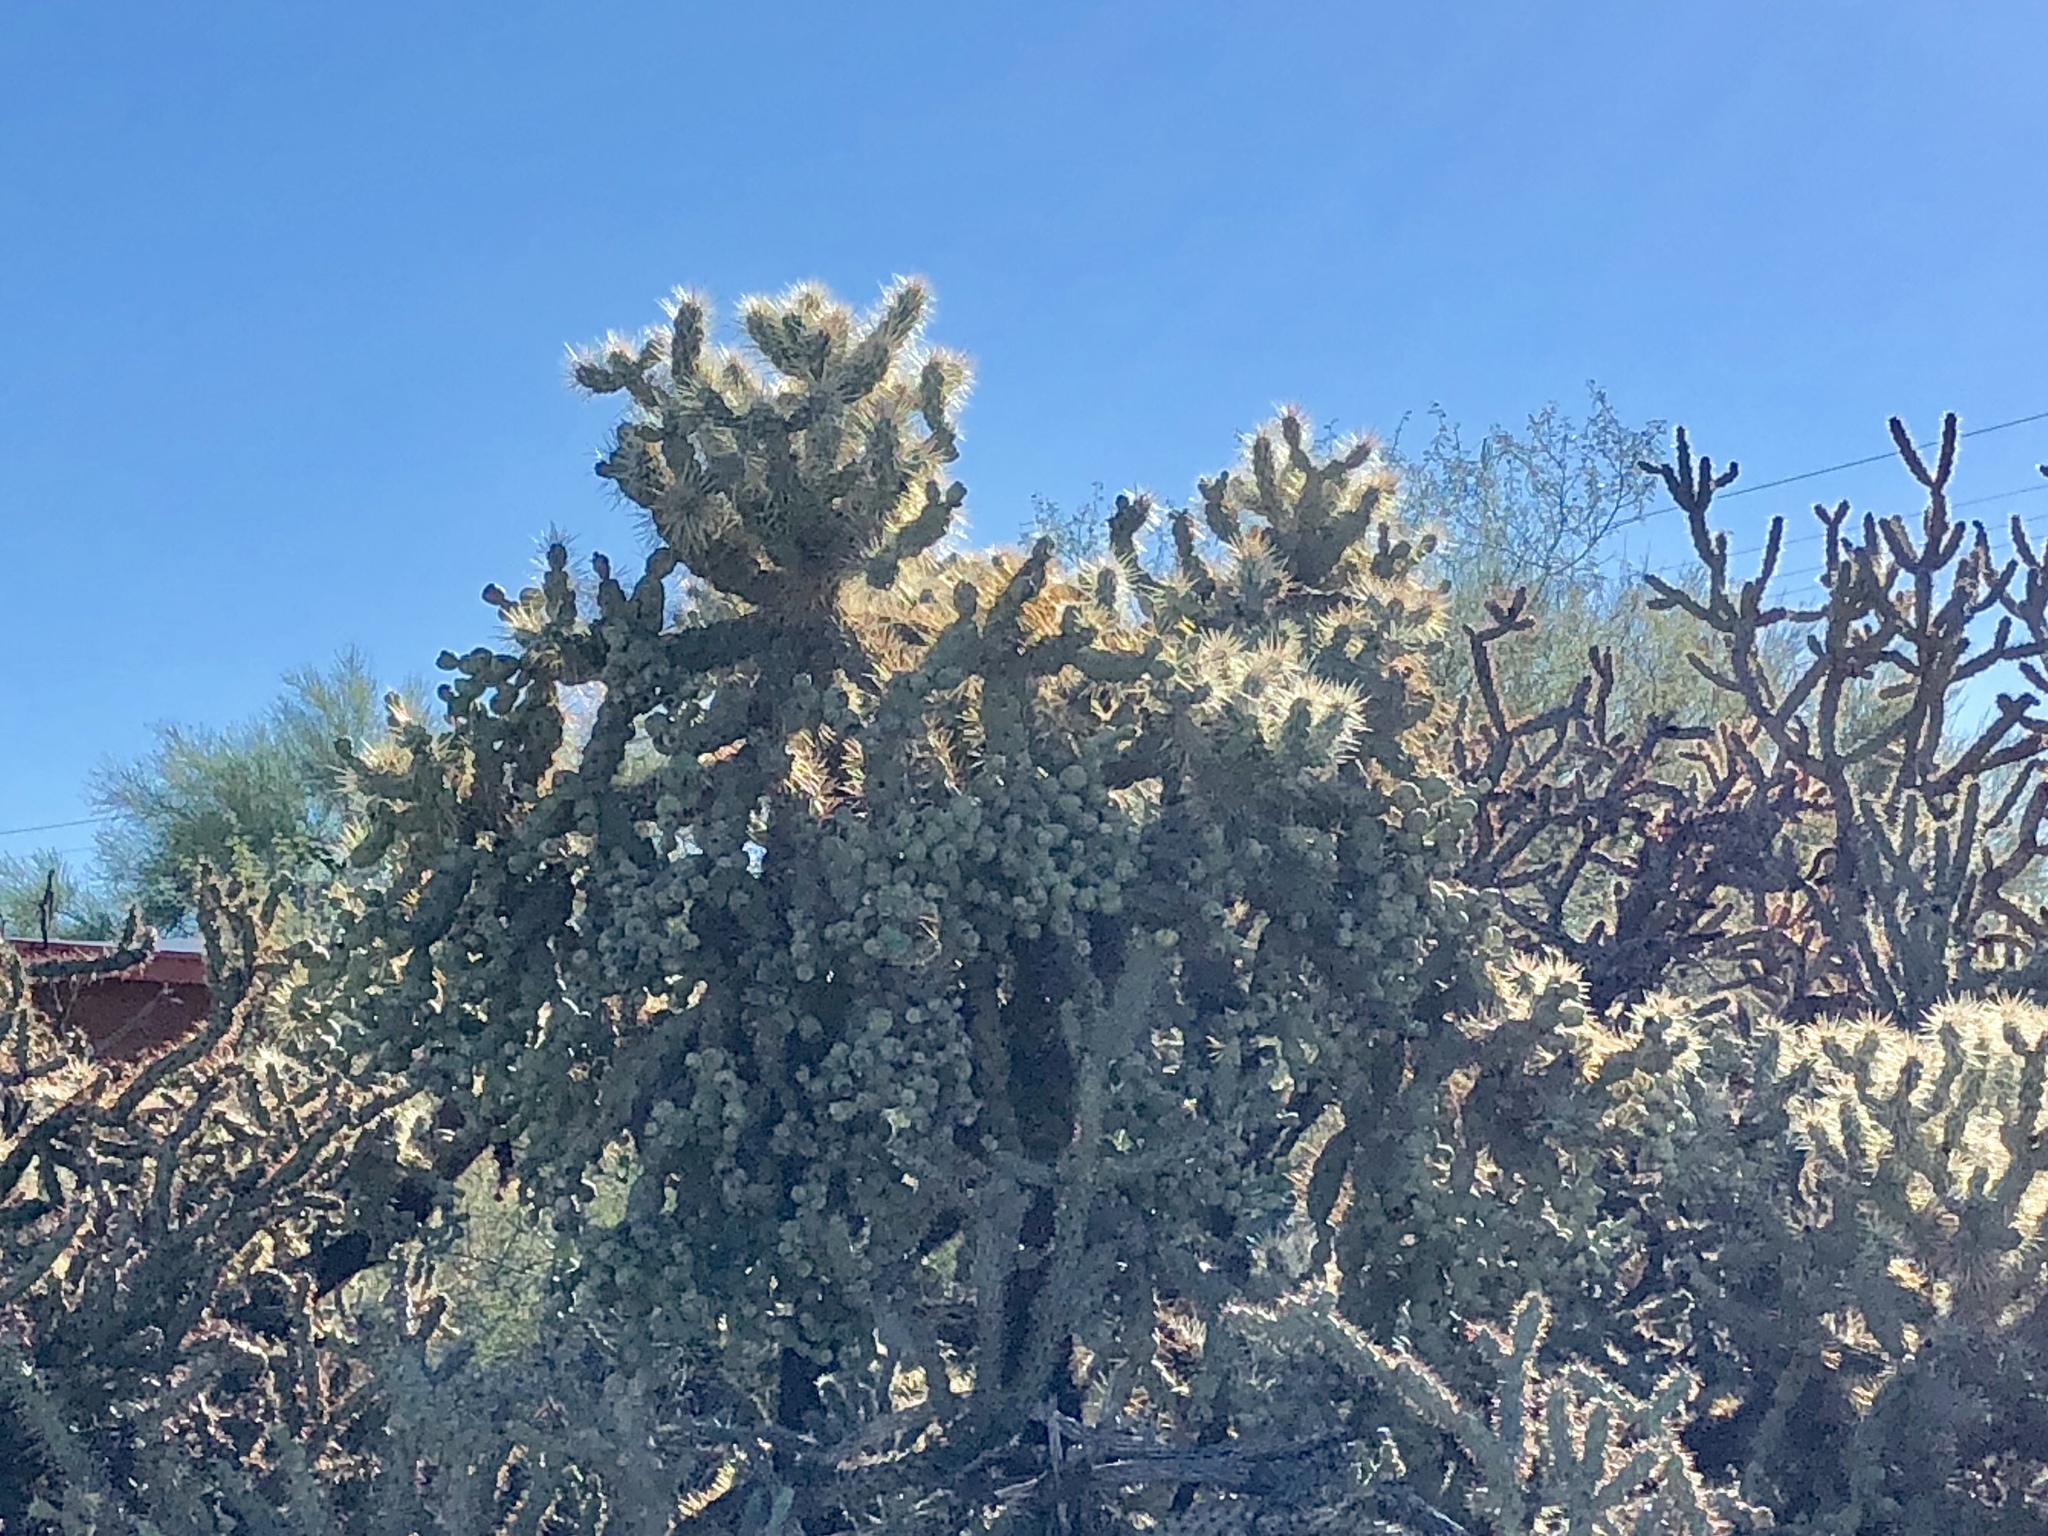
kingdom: Plantae
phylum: Tracheophyta
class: Magnoliopsida
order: Caryophyllales
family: Cactaceae
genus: Cylindropuntia
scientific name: Cylindropuntia fulgida
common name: Jumping cholla
